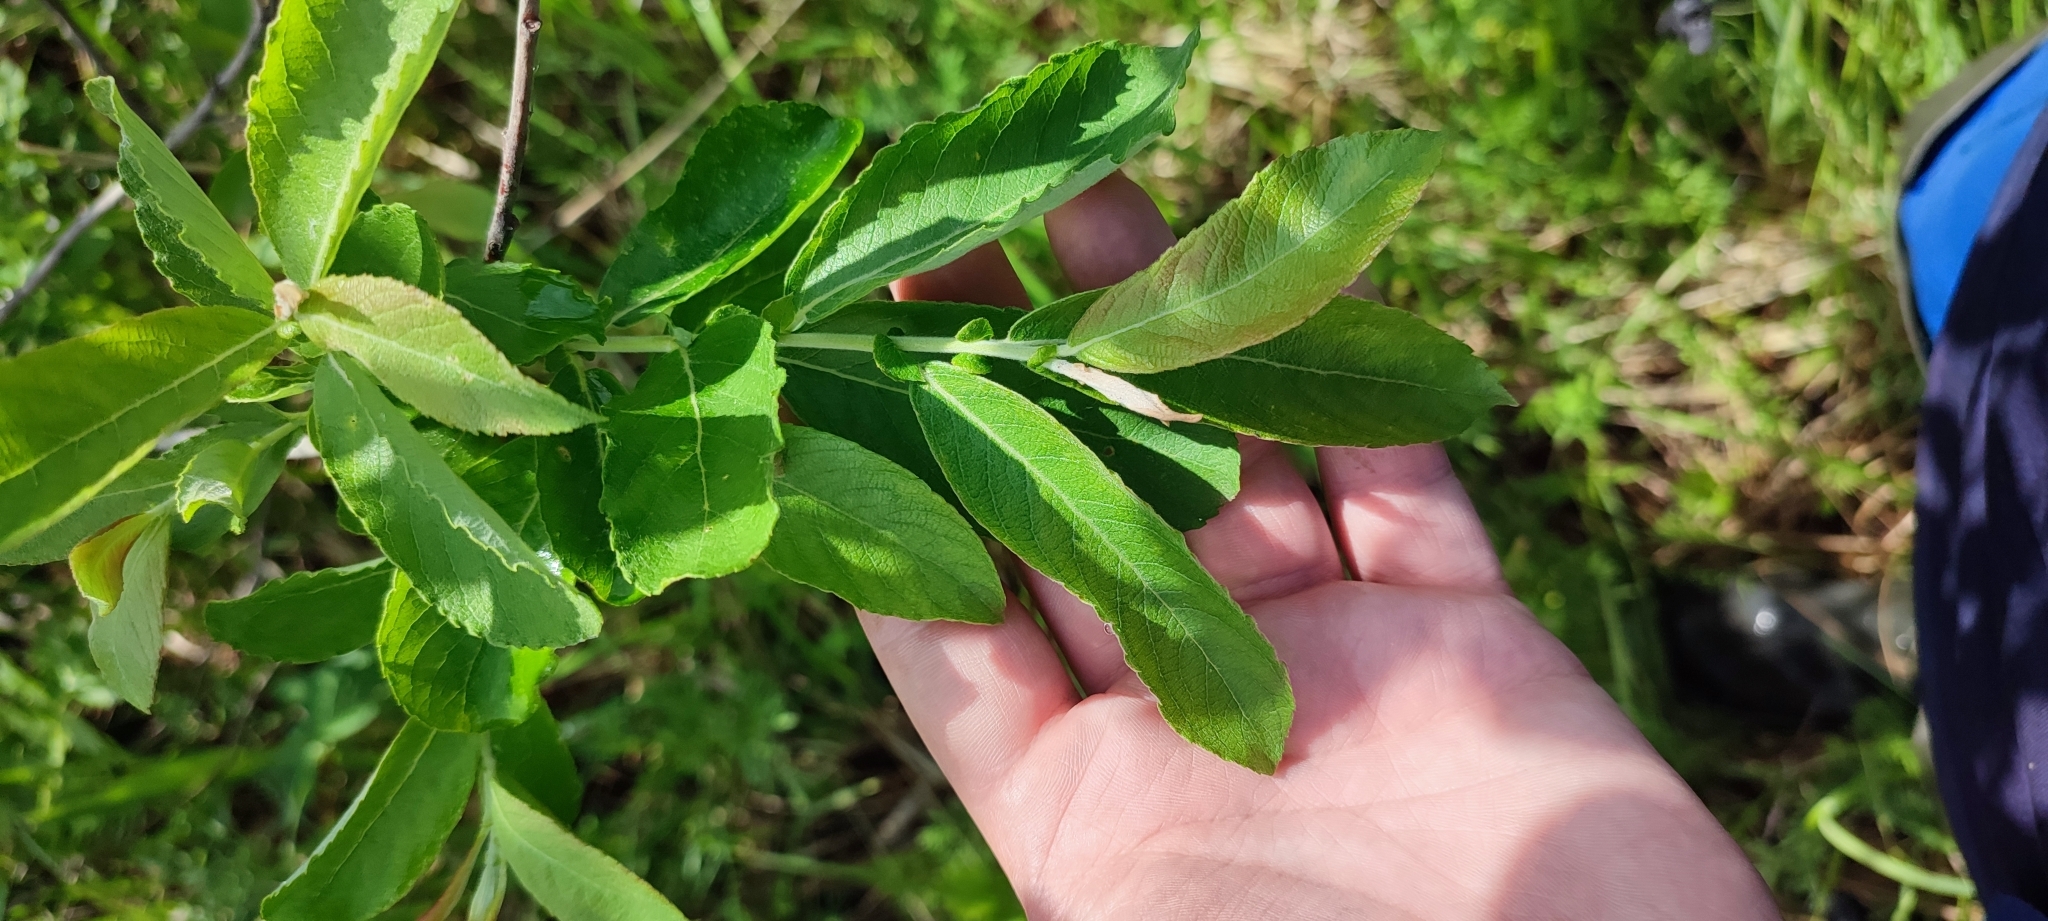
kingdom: Plantae
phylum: Tracheophyta
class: Magnoliopsida
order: Malpighiales
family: Salicaceae
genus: Salix
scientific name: Salix cinerea
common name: Common sallow
